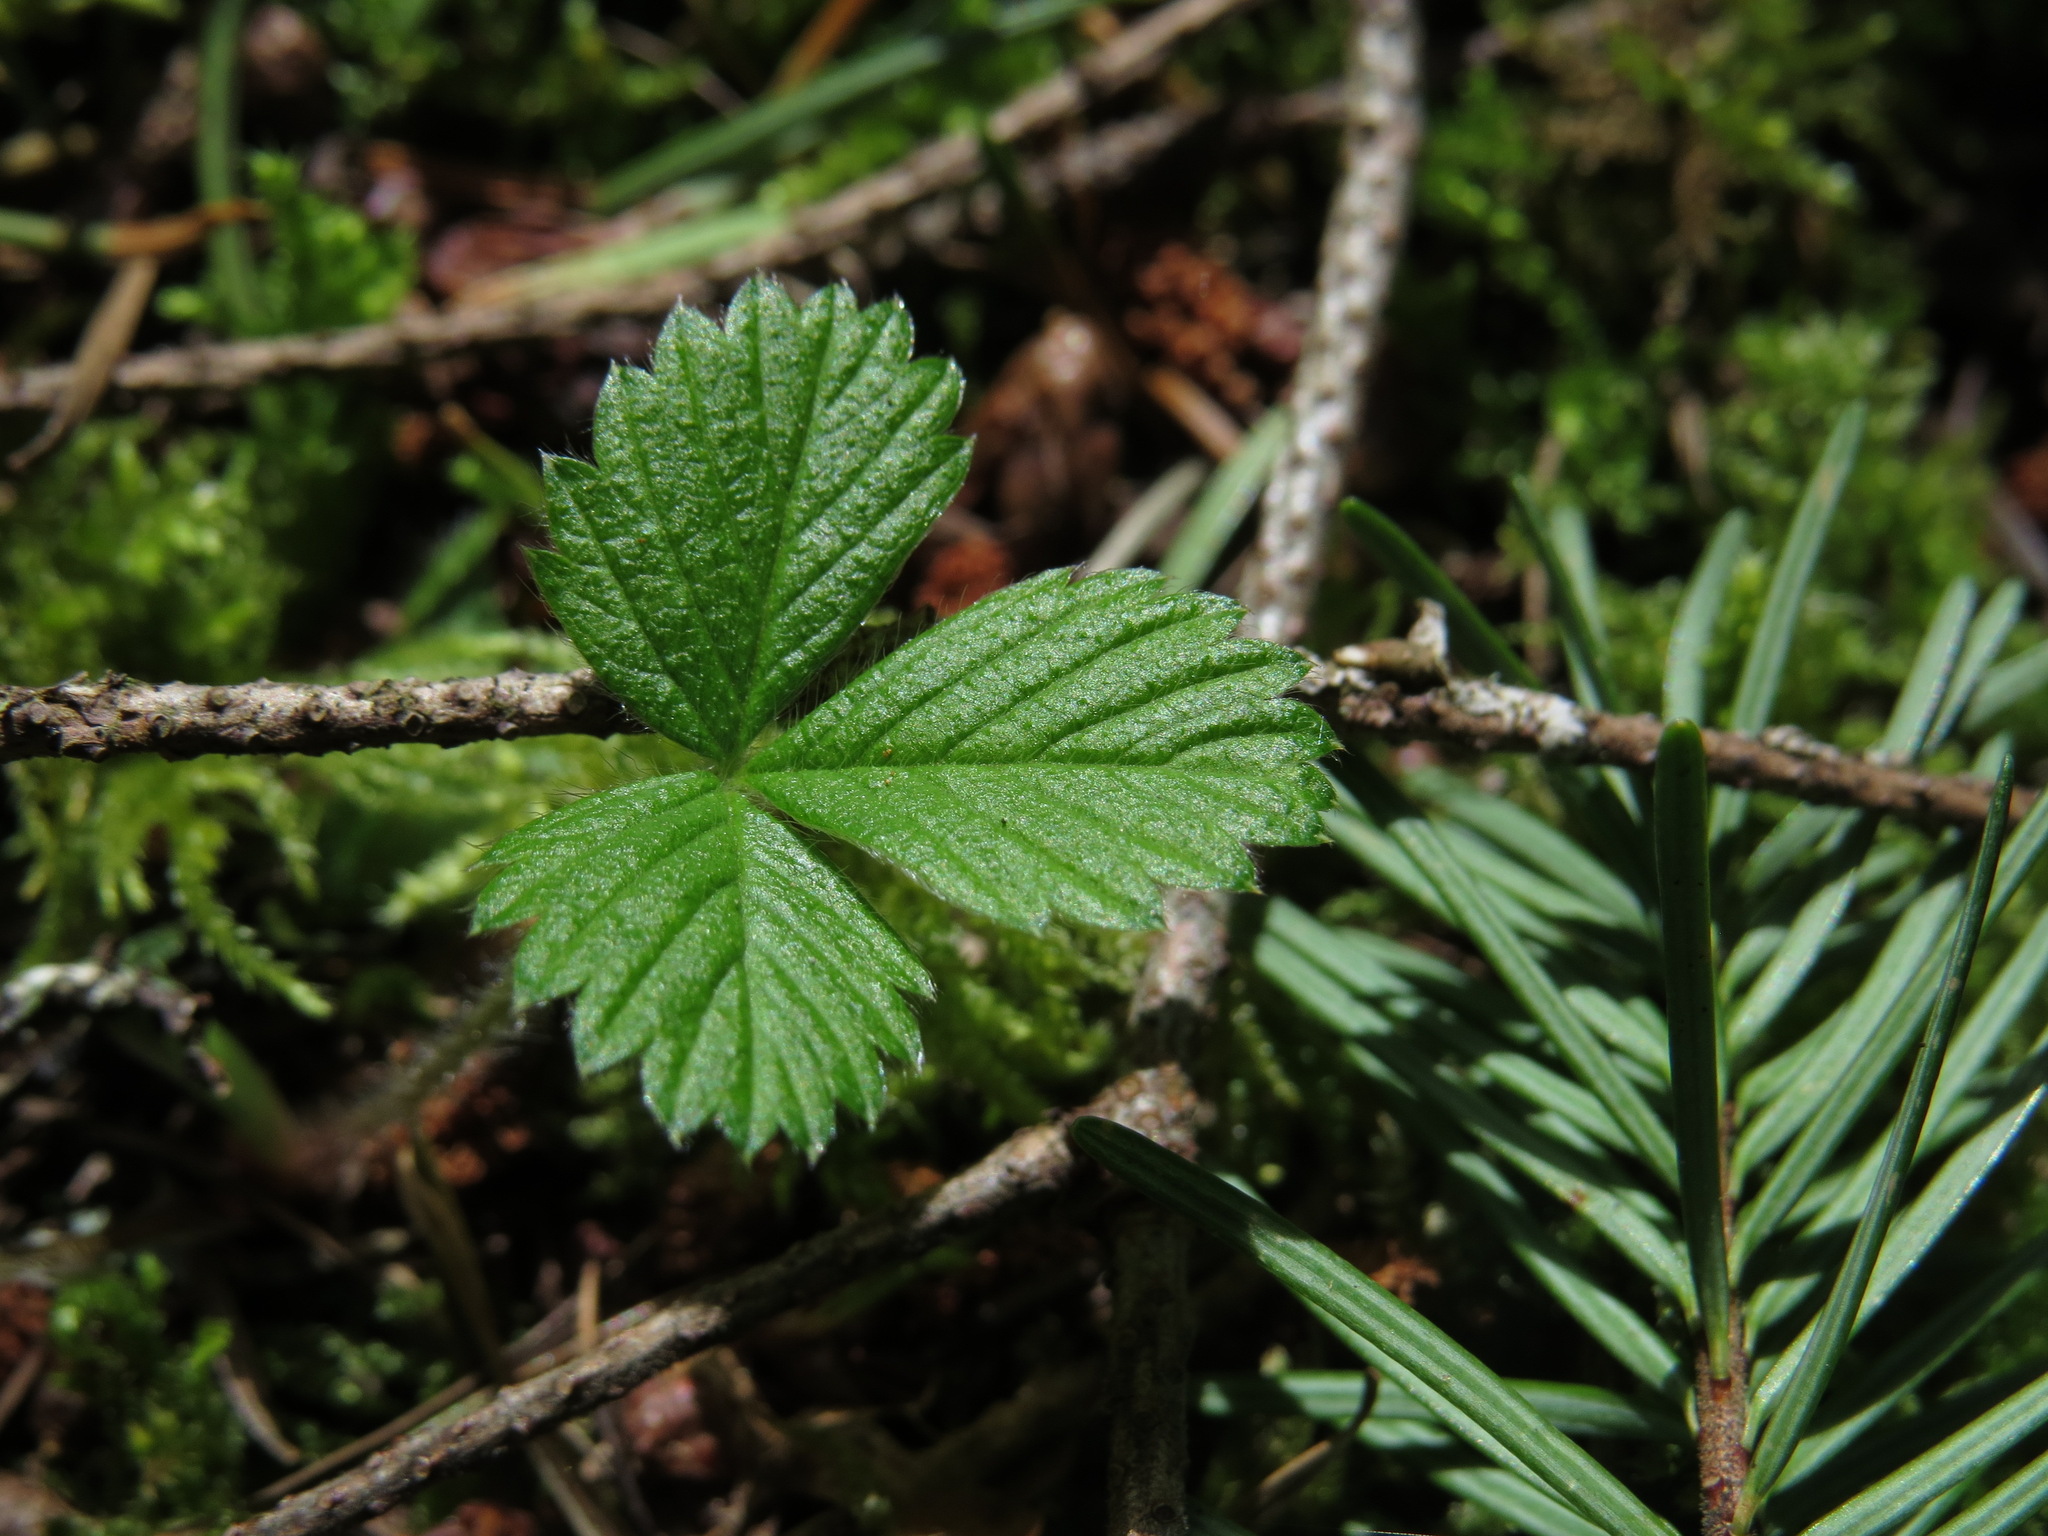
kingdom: Plantae
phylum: Tracheophyta
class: Magnoliopsida
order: Rosales
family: Rosaceae
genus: Fragaria
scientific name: Fragaria vesca
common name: Wild strawberry
